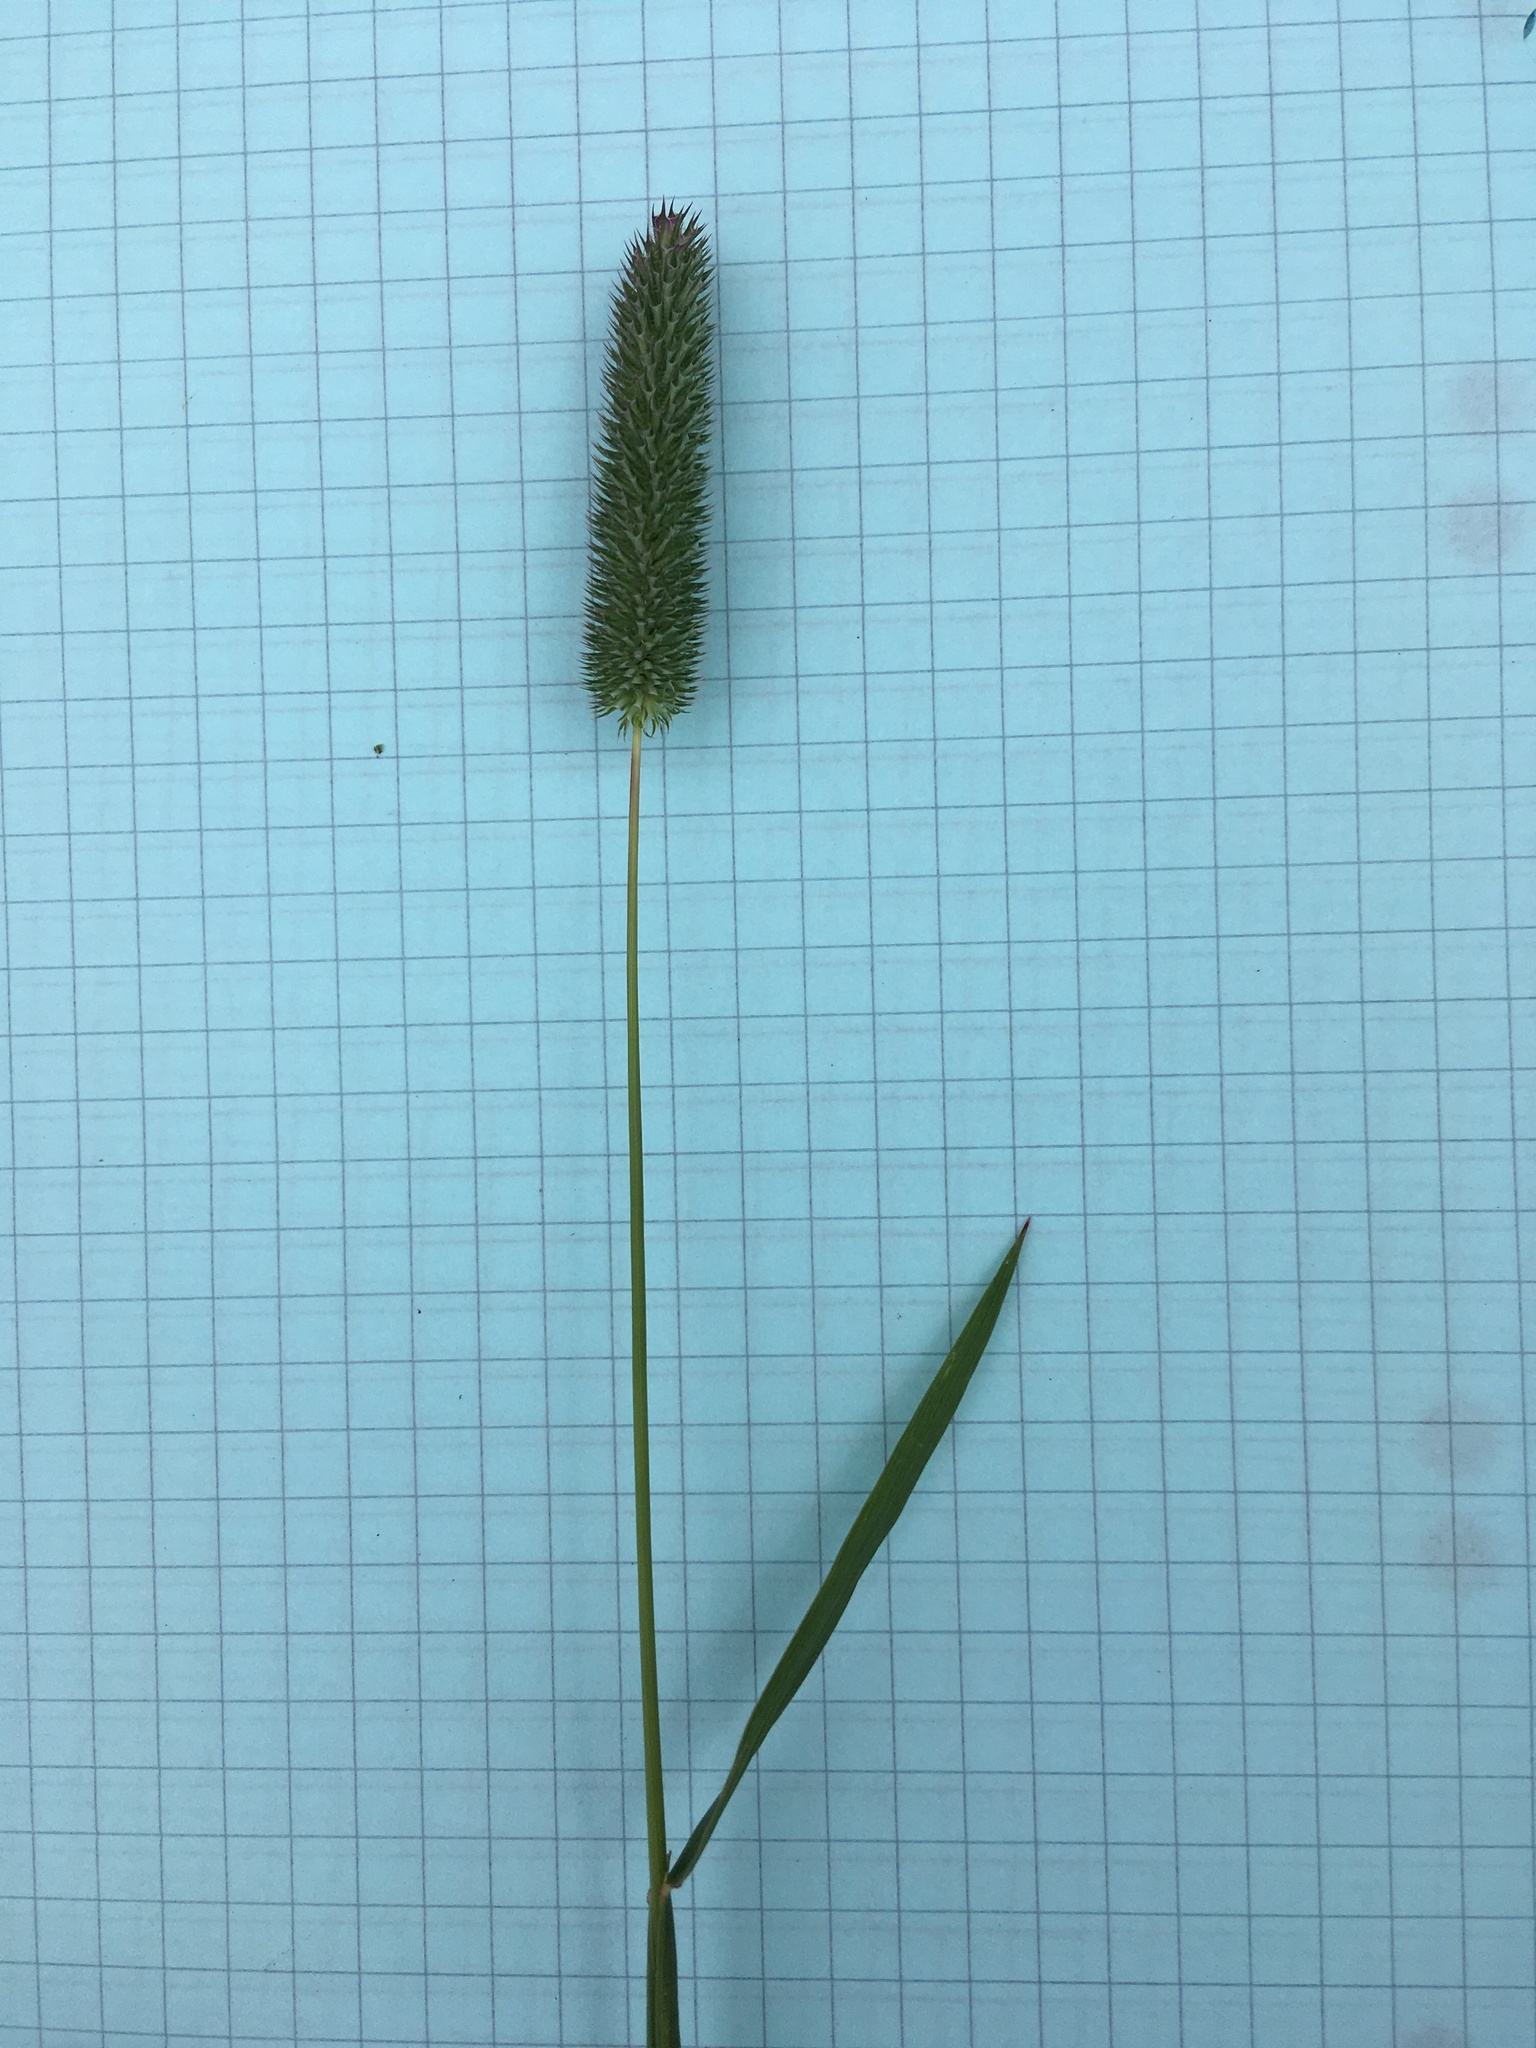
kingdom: Plantae
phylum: Tracheophyta
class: Liliopsida
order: Poales
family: Poaceae
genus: Phleum
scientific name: Phleum pratense
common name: Timothy grass
